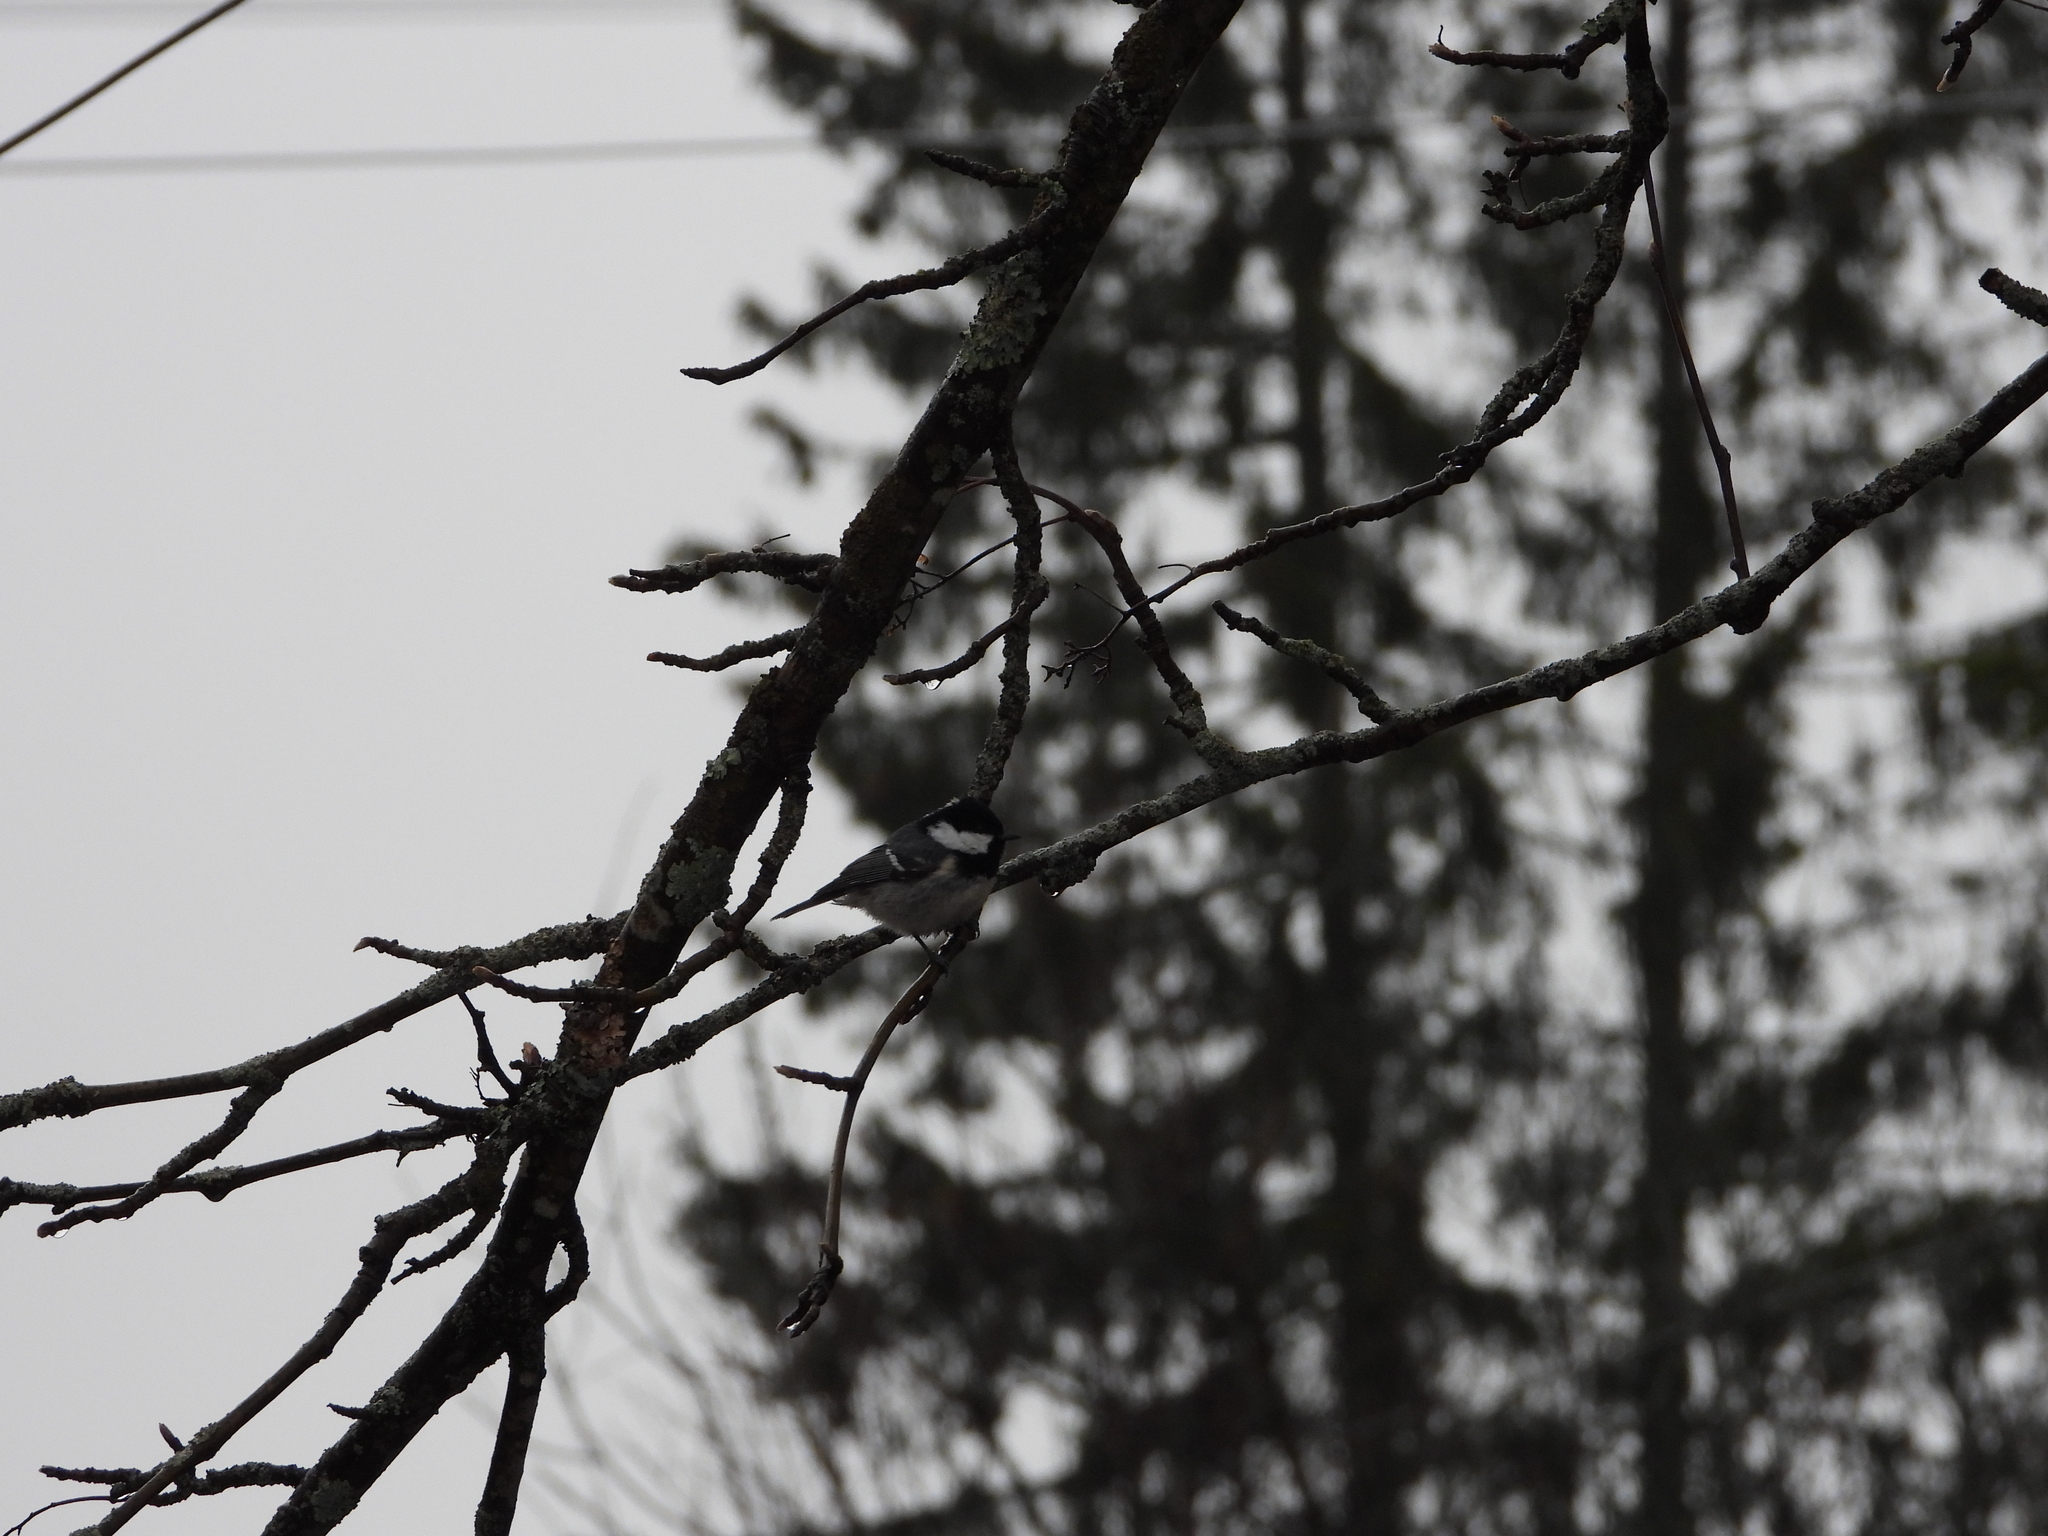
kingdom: Animalia
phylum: Chordata
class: Aves
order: Passeriformes
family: Paridae
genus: Periparus
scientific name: Periparus ater
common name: Coal tit
